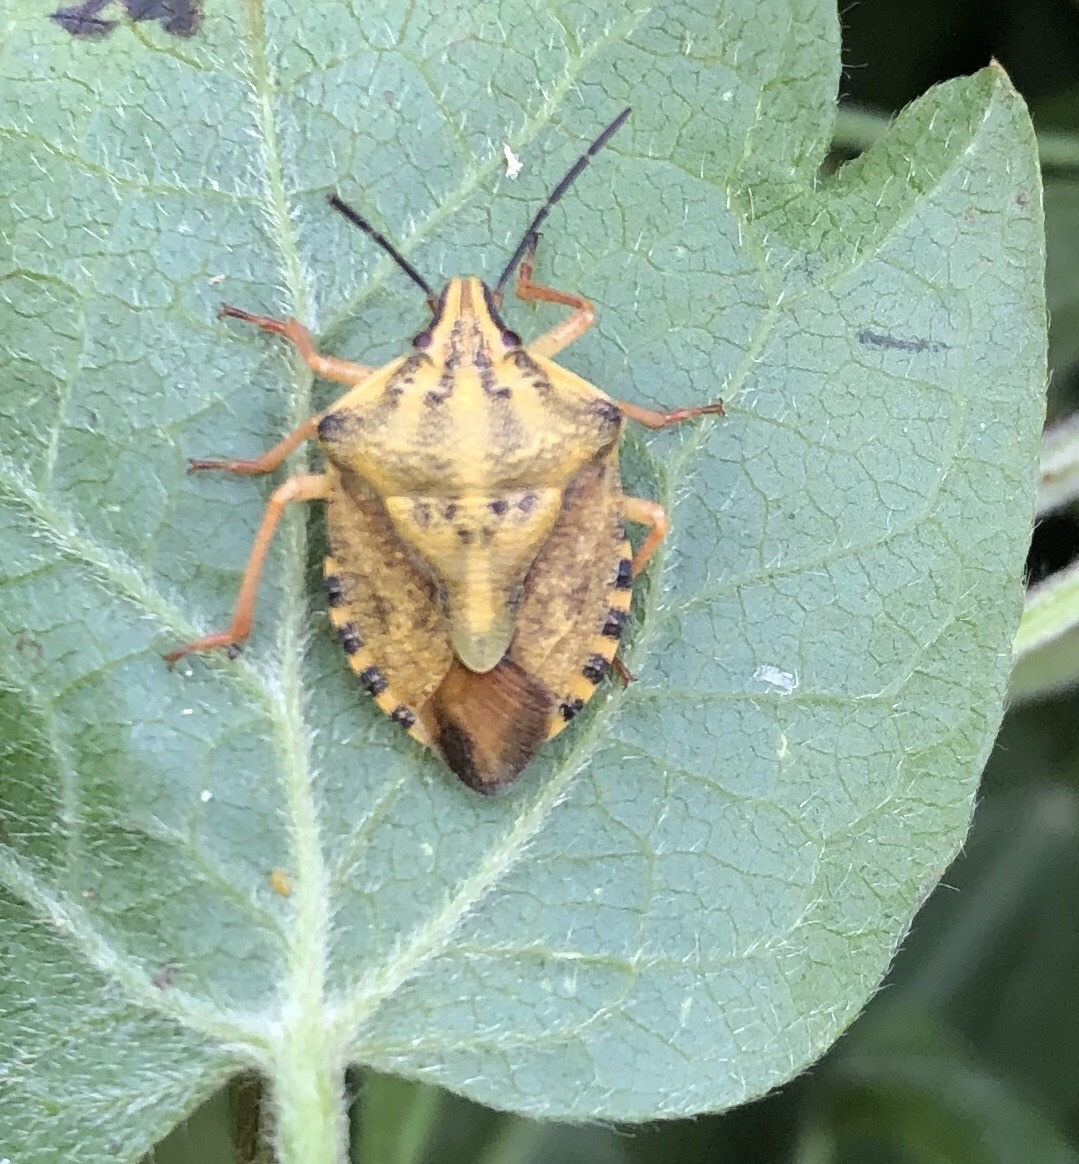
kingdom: Animalia
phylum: Arthropoda
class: Insecta
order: Hemiptera
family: Pentatomidae
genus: Carpocoris
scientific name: Carpocoris purpureipennis
